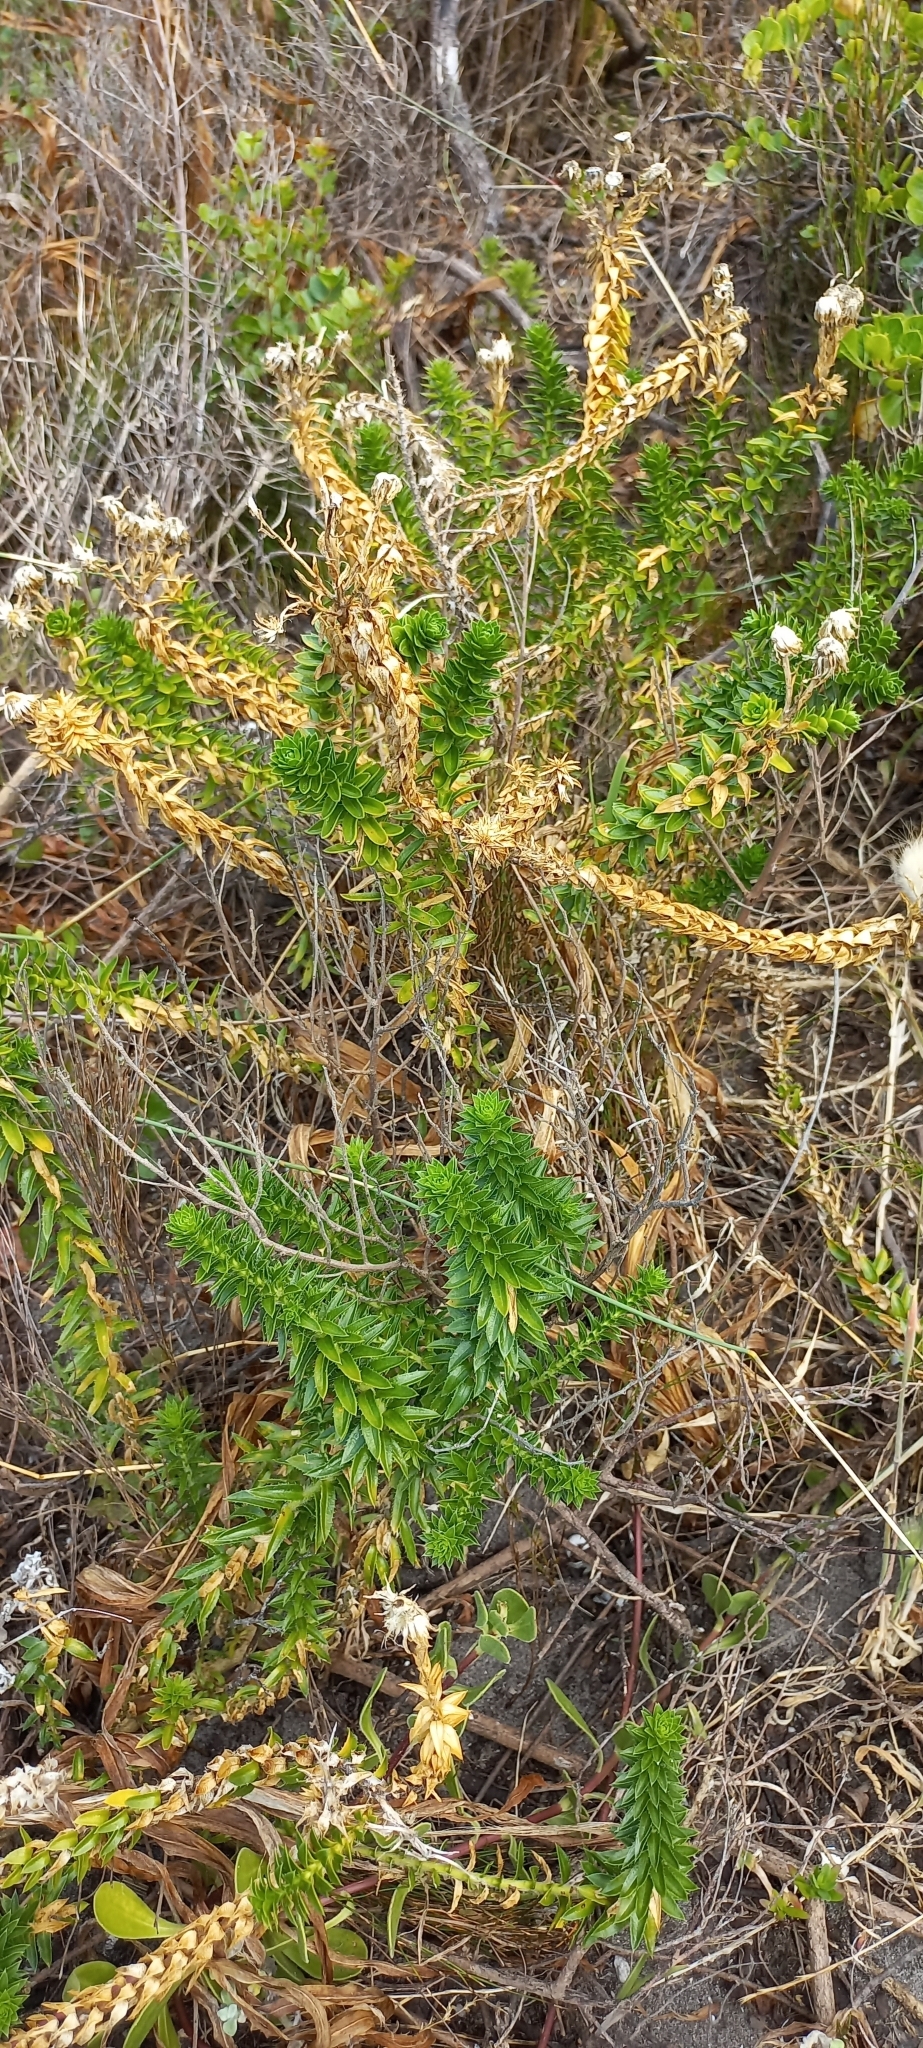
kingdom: Plantae
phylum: Tracheophyta
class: Magnoliopsida
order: Asterales
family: Asteraceae
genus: Felicia
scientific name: Felicia echinata
